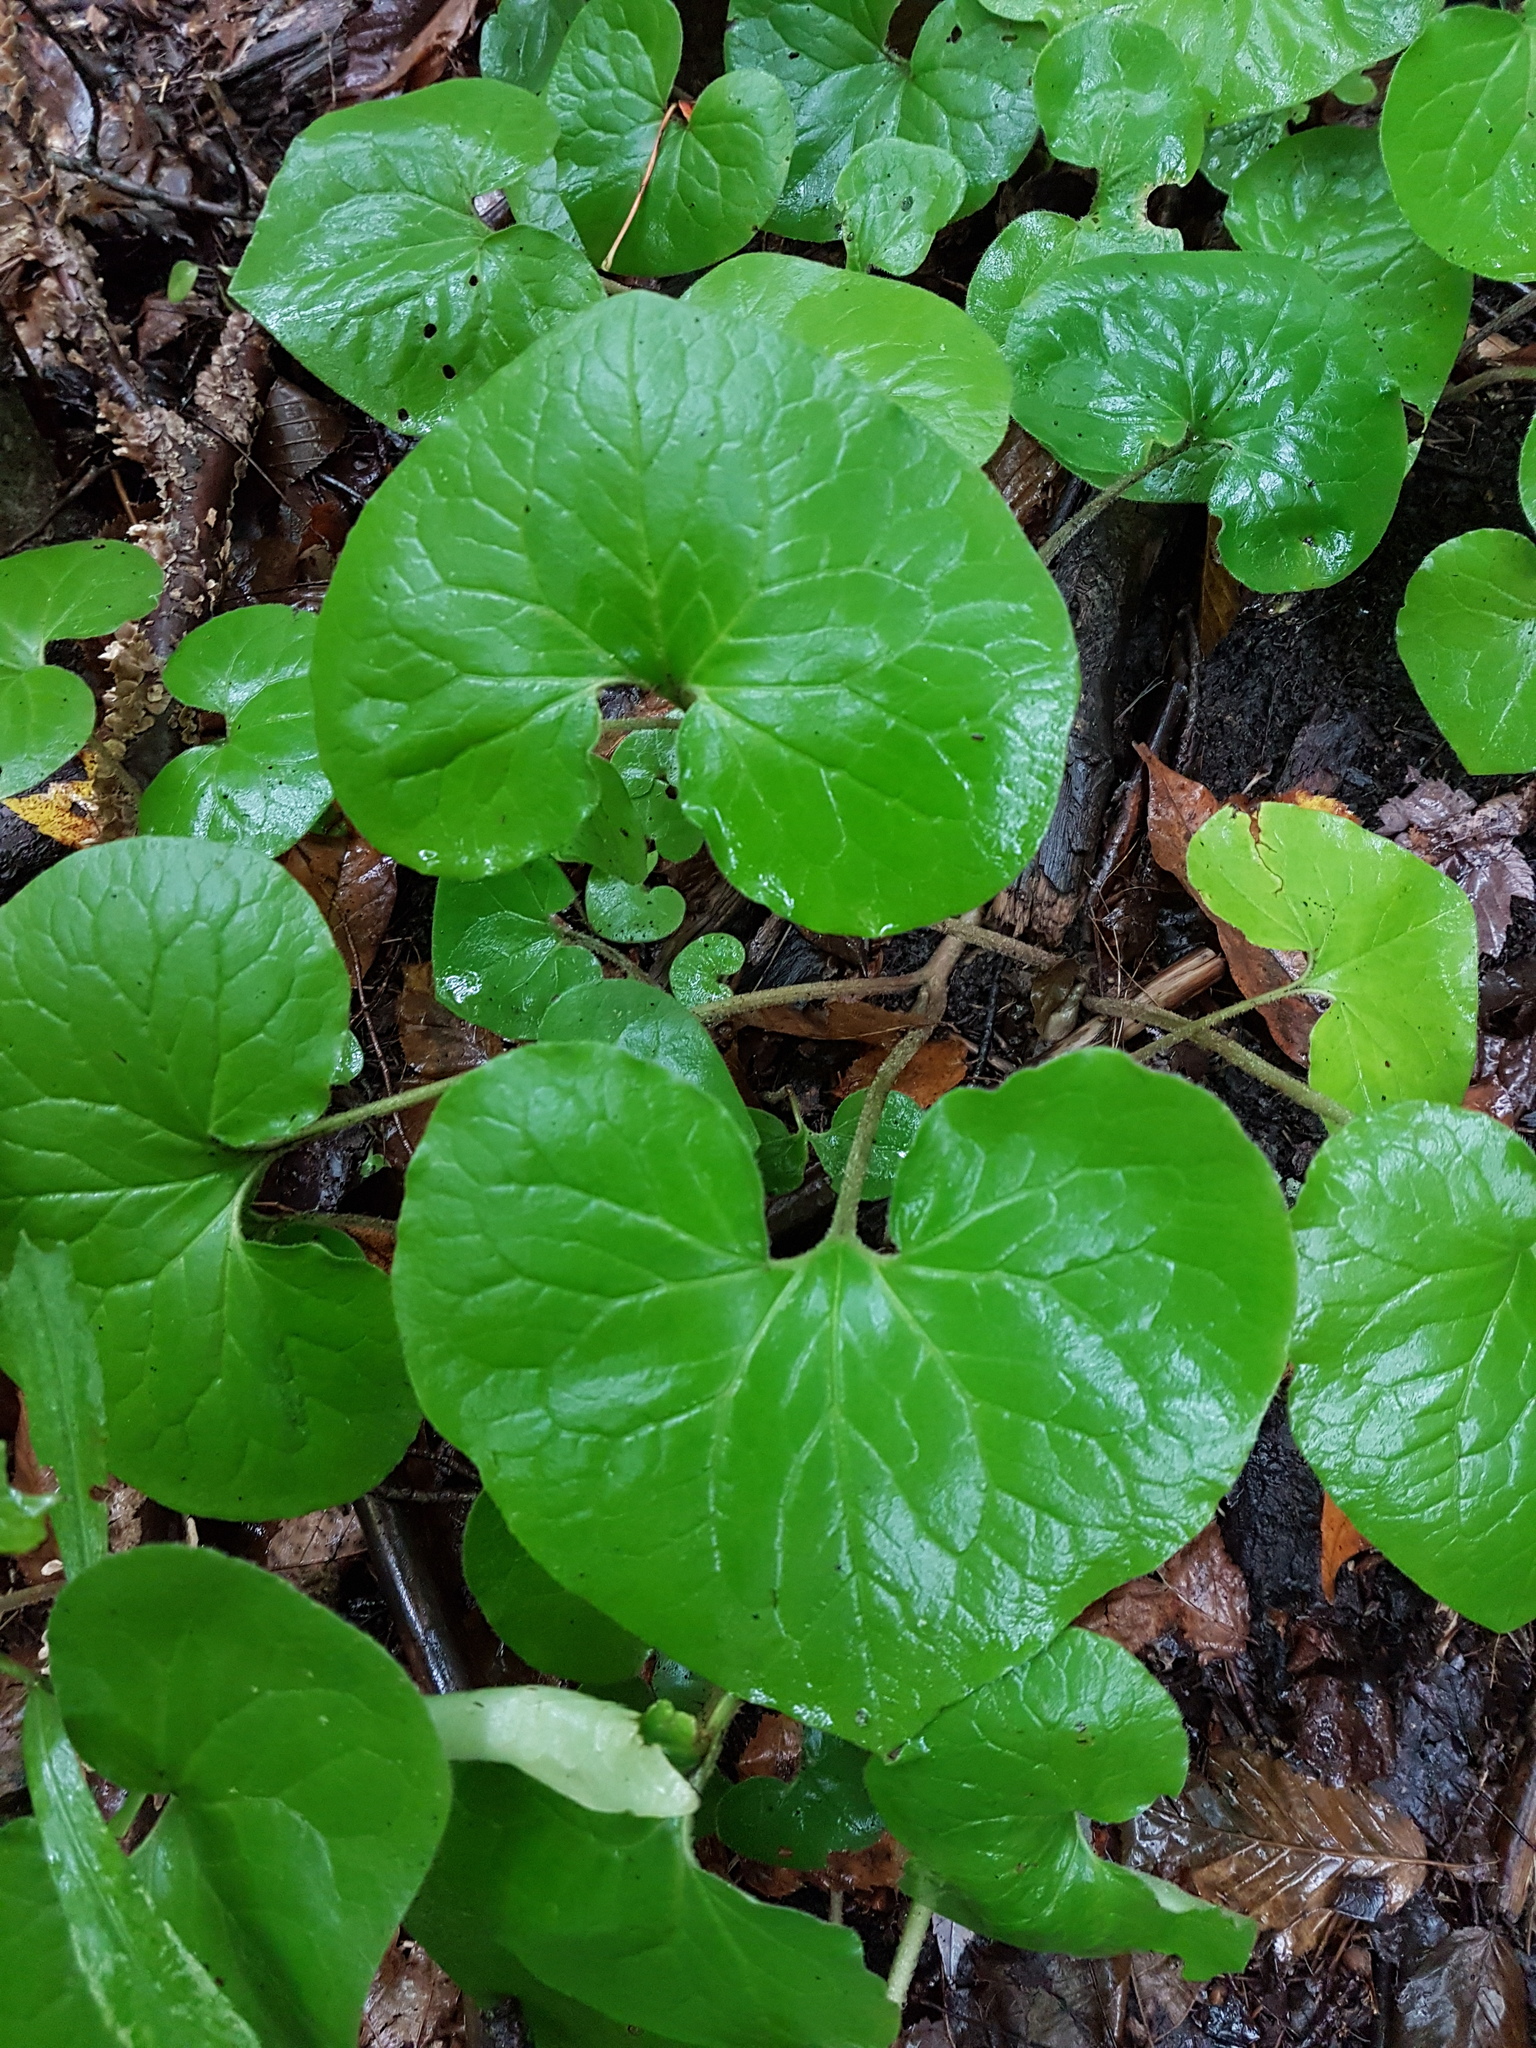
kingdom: Plantae
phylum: Tracheophyta
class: Magnoliopsida
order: Piperales
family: Aristolochiaceae
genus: Asarum
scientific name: Asarum canadense
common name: Wild ginger
